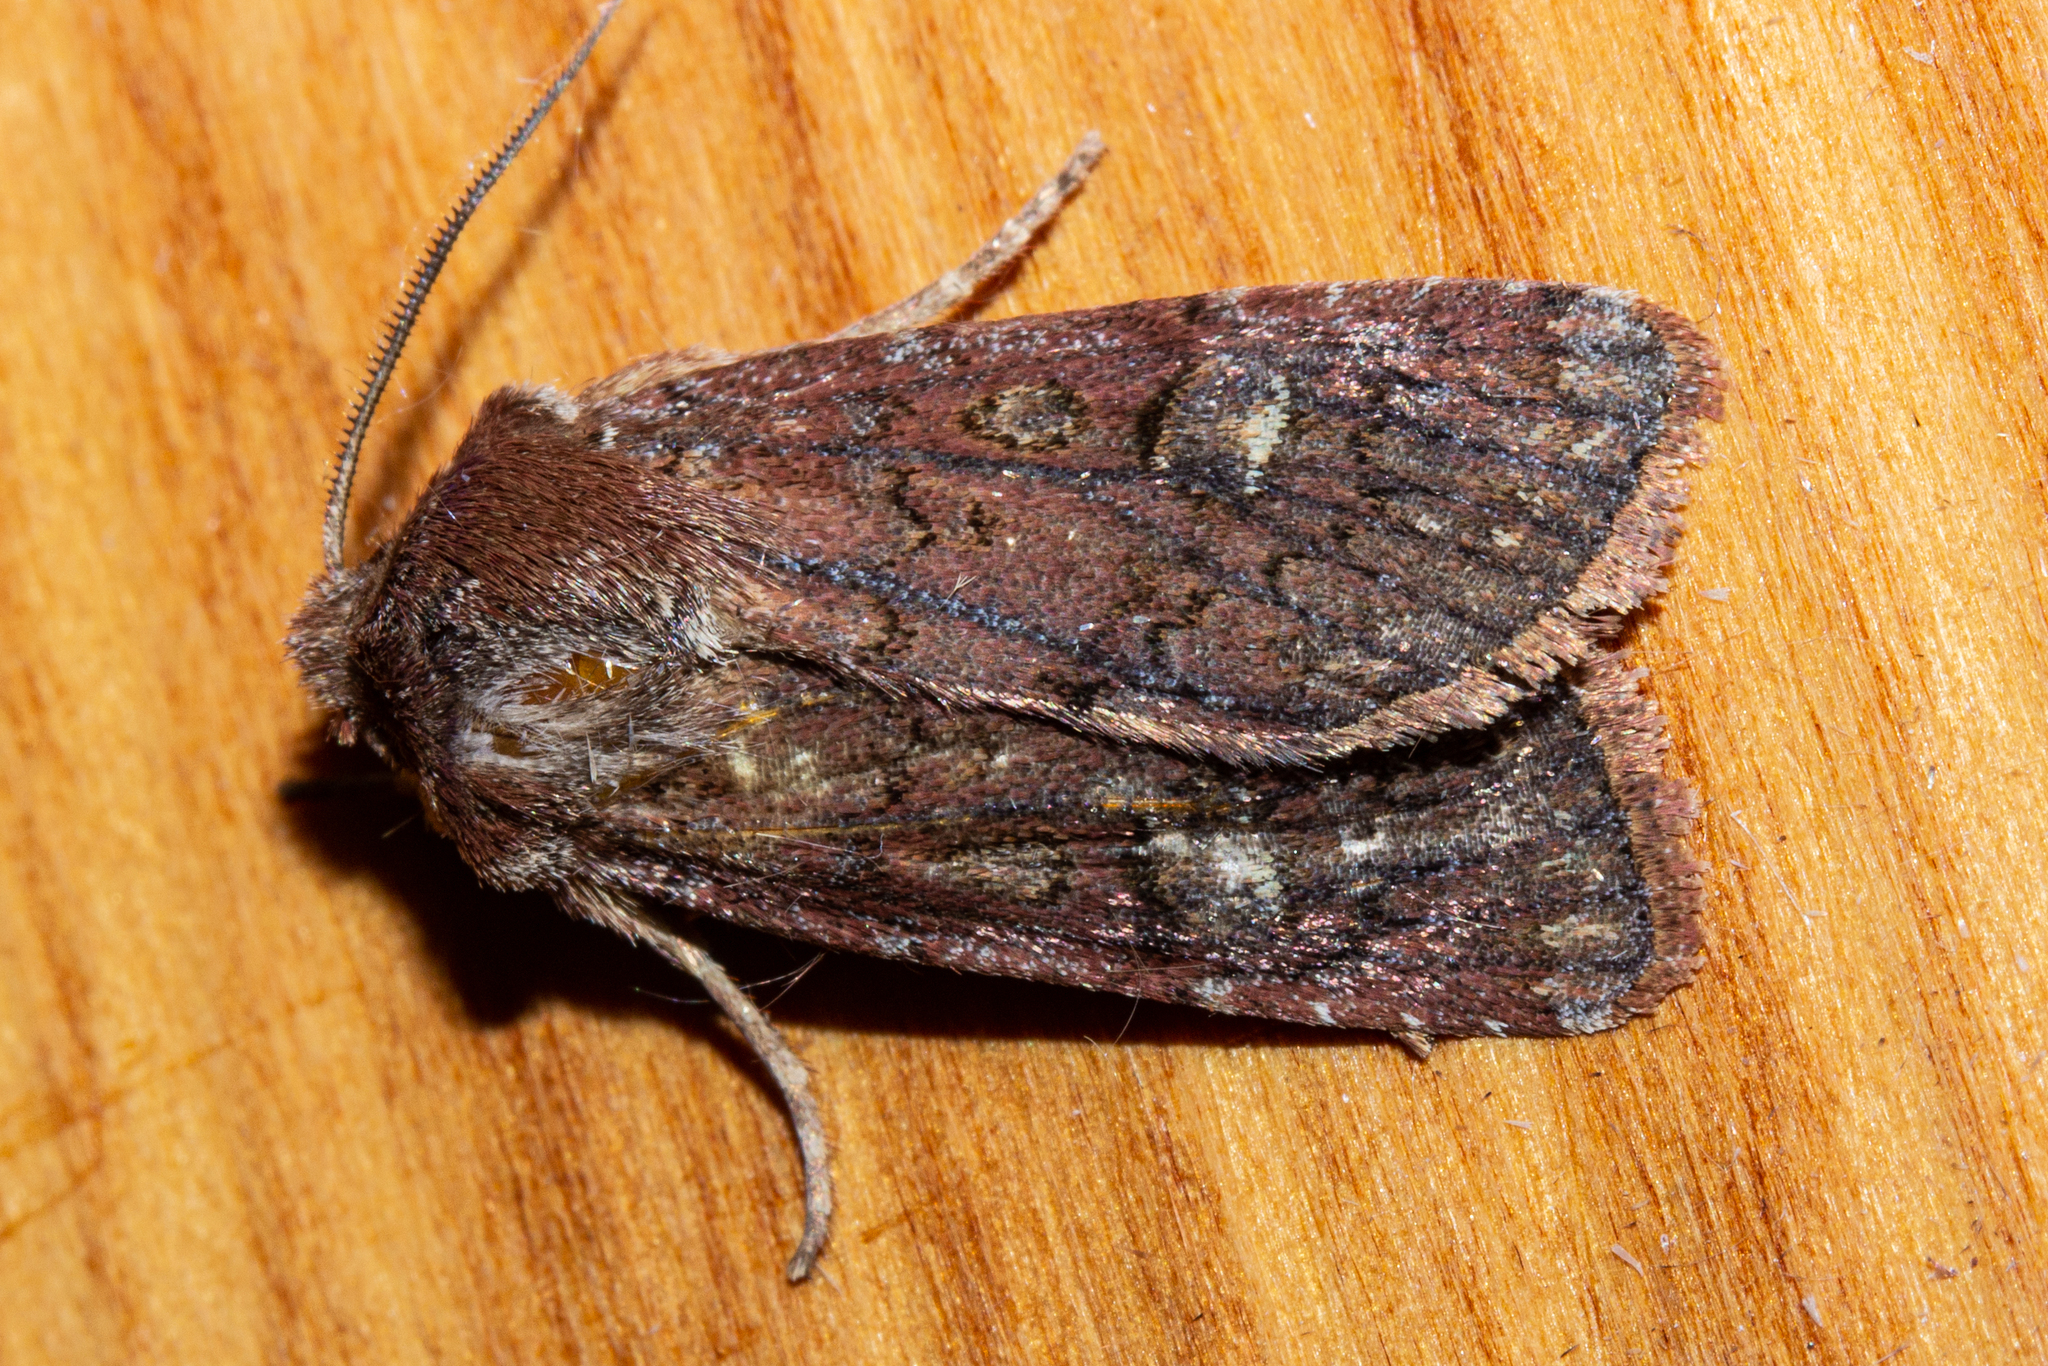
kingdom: Animalia
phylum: Arthropoda
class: Insecta
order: Lepidoptera
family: Noctuidae
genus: Ichneutica
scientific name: Ichneutica agorastis
